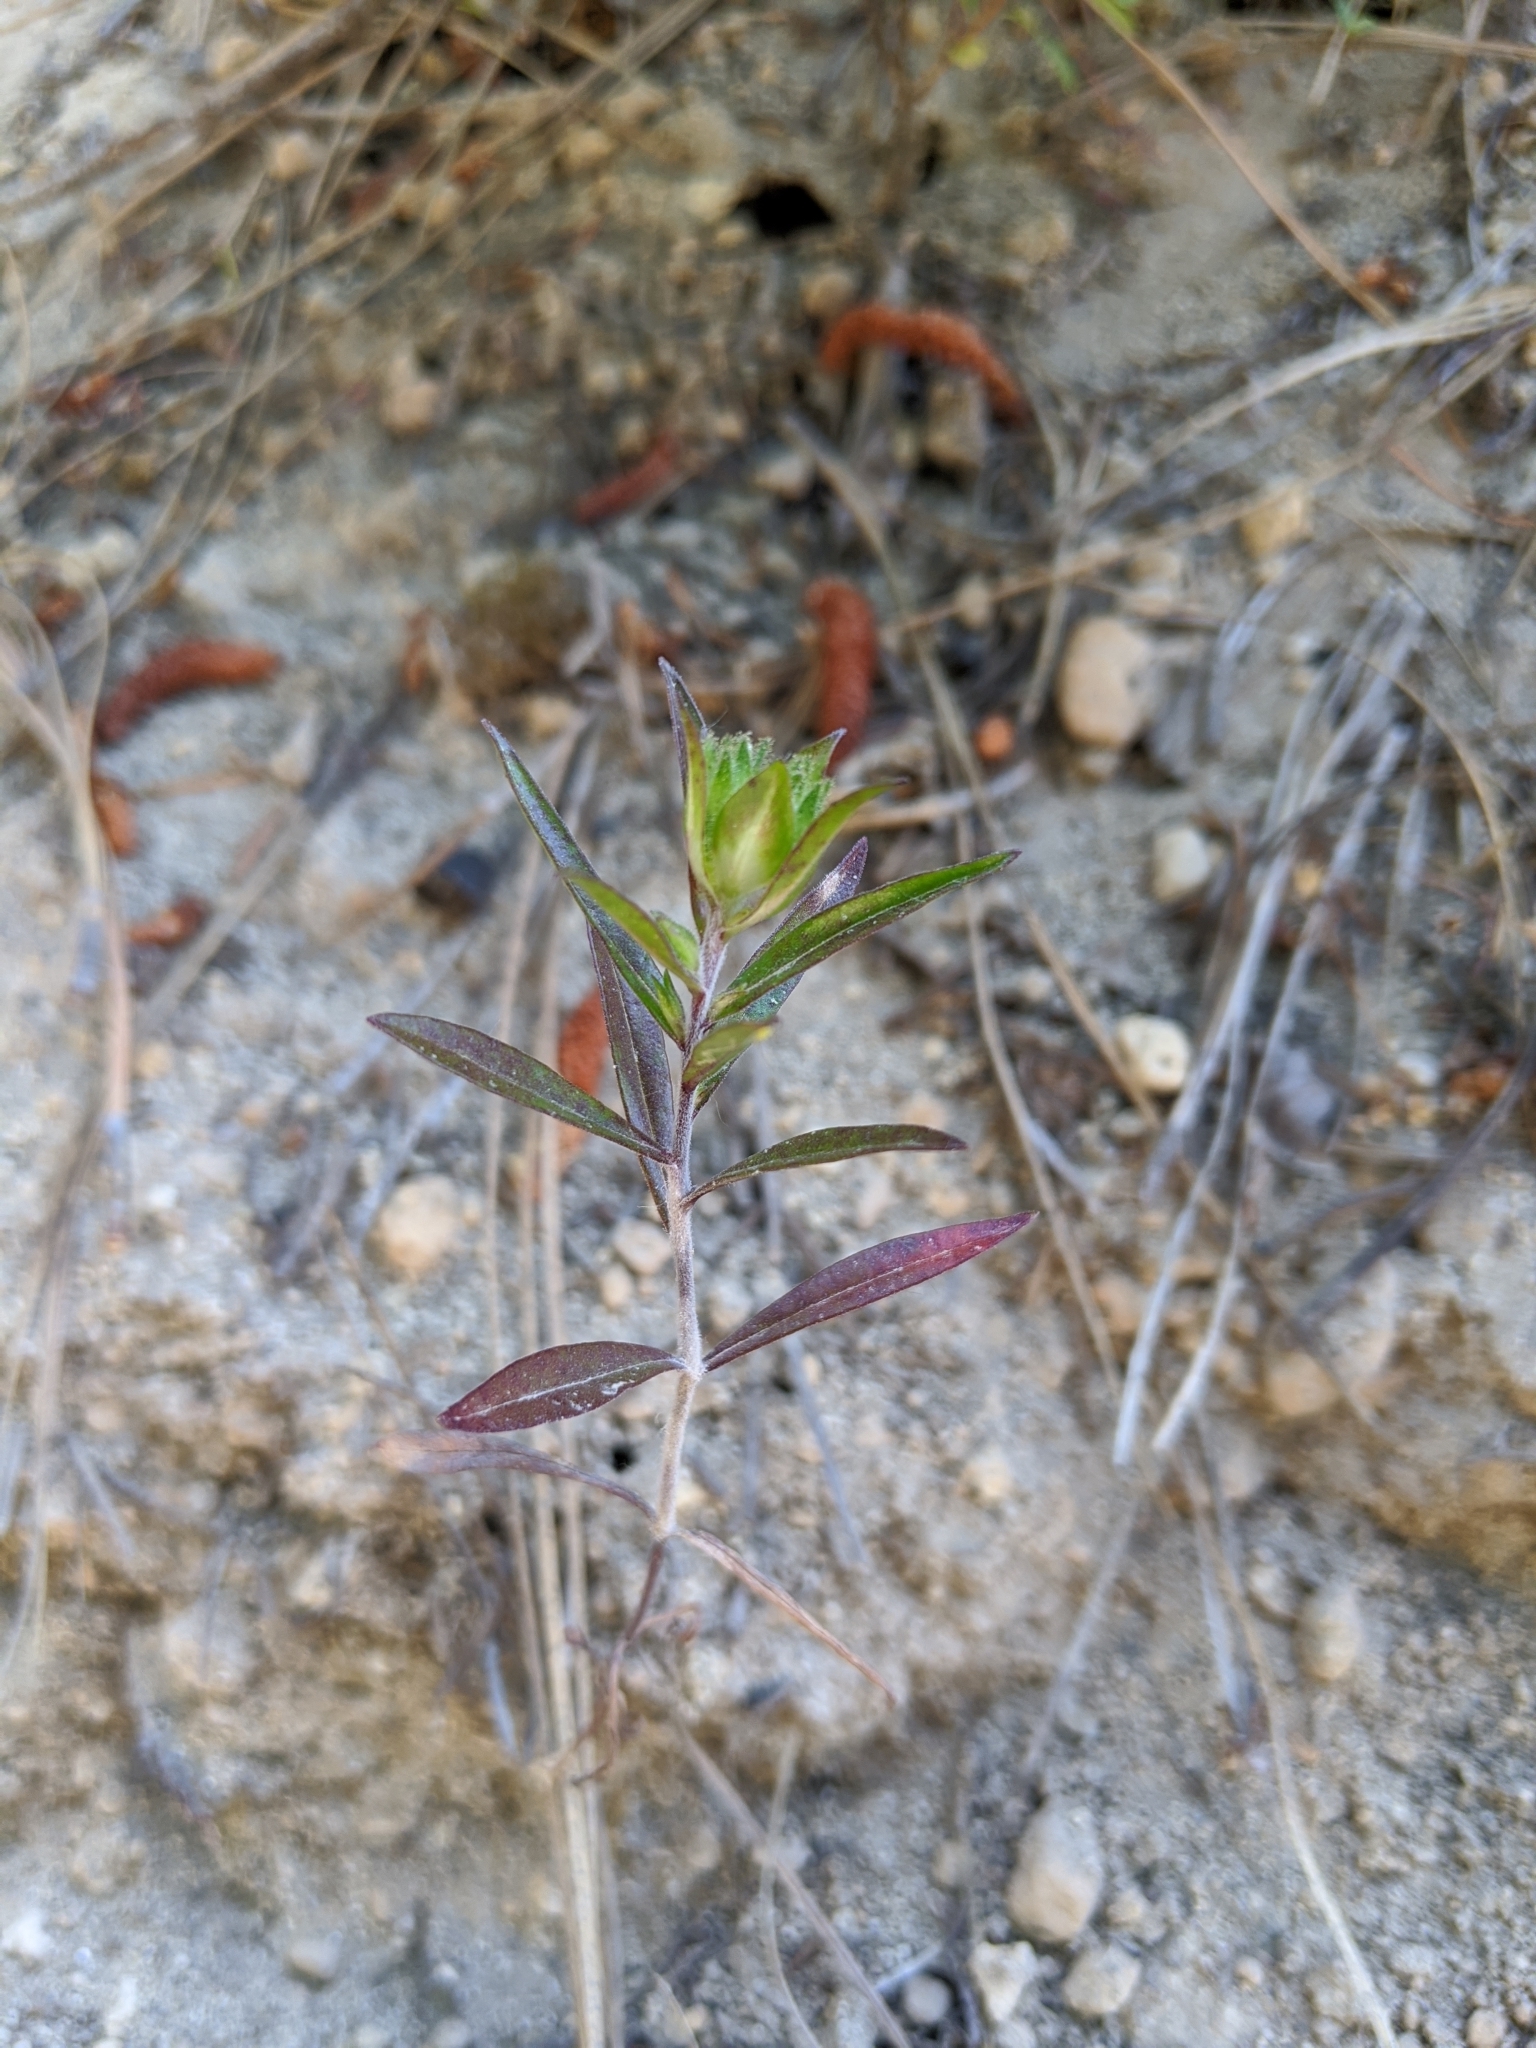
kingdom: Plantae
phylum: Tracheophyta
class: Magnoliopsida
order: Ericales
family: Polemoniaceae
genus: Collomia
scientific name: Collomia grandiflora
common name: California strawflower
